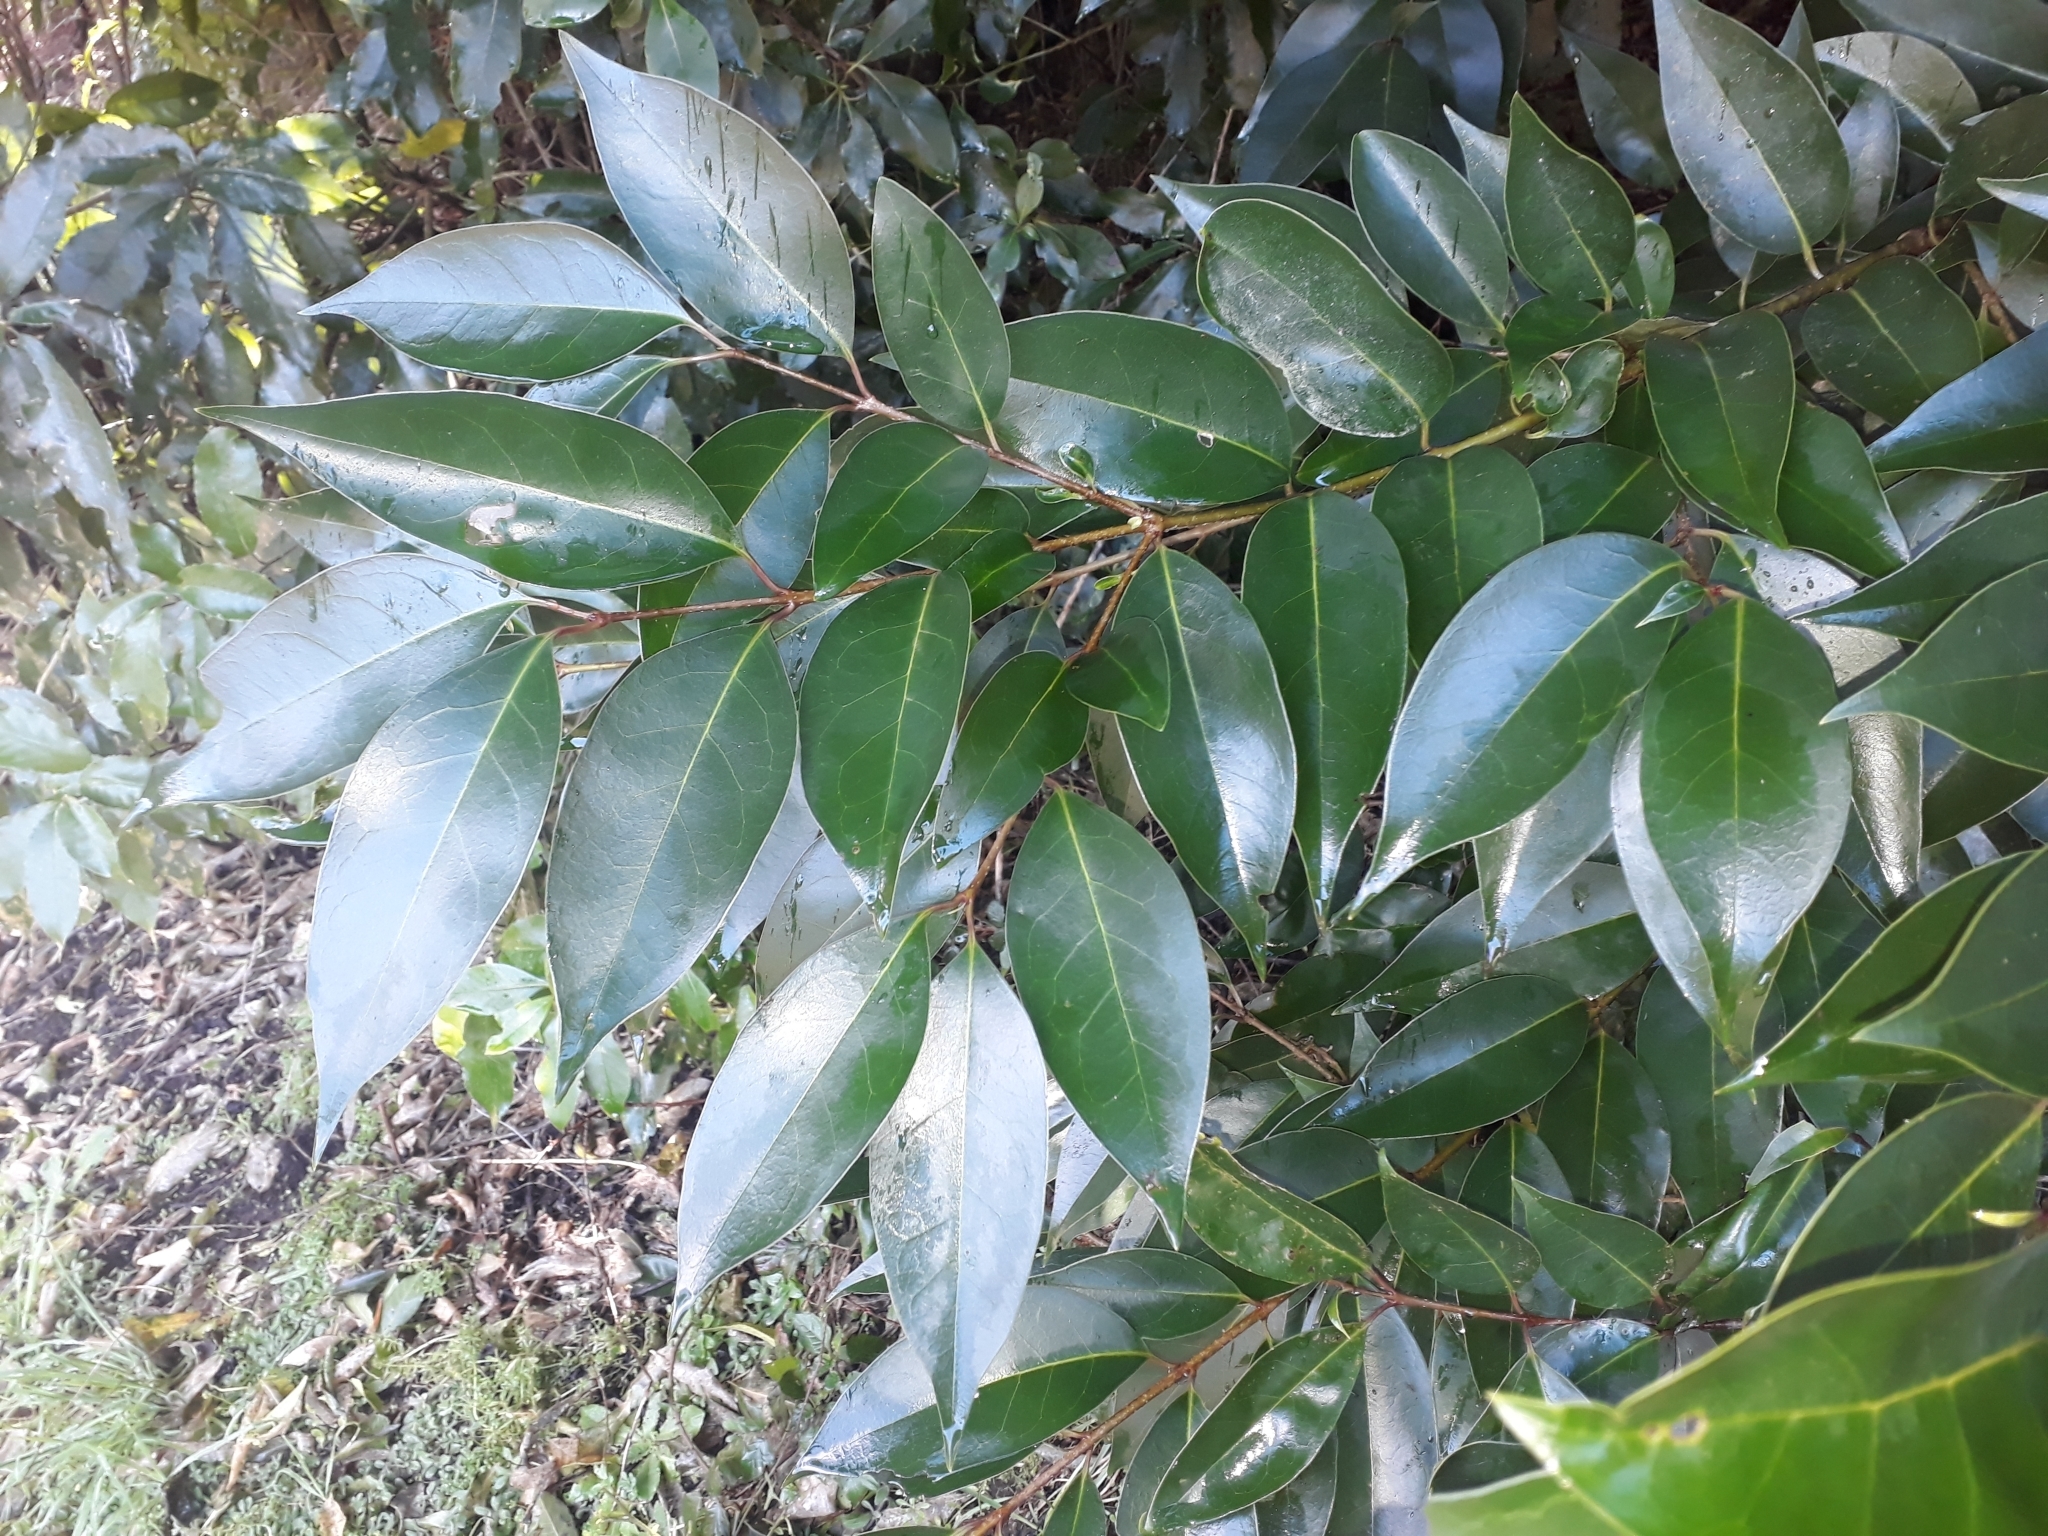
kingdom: Plantae
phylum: Tracheophyta
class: Magnoliopsida
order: Lamiales
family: Oleaceae
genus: Ligustrum
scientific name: Ligustrum lucidum
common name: Glossy privet
